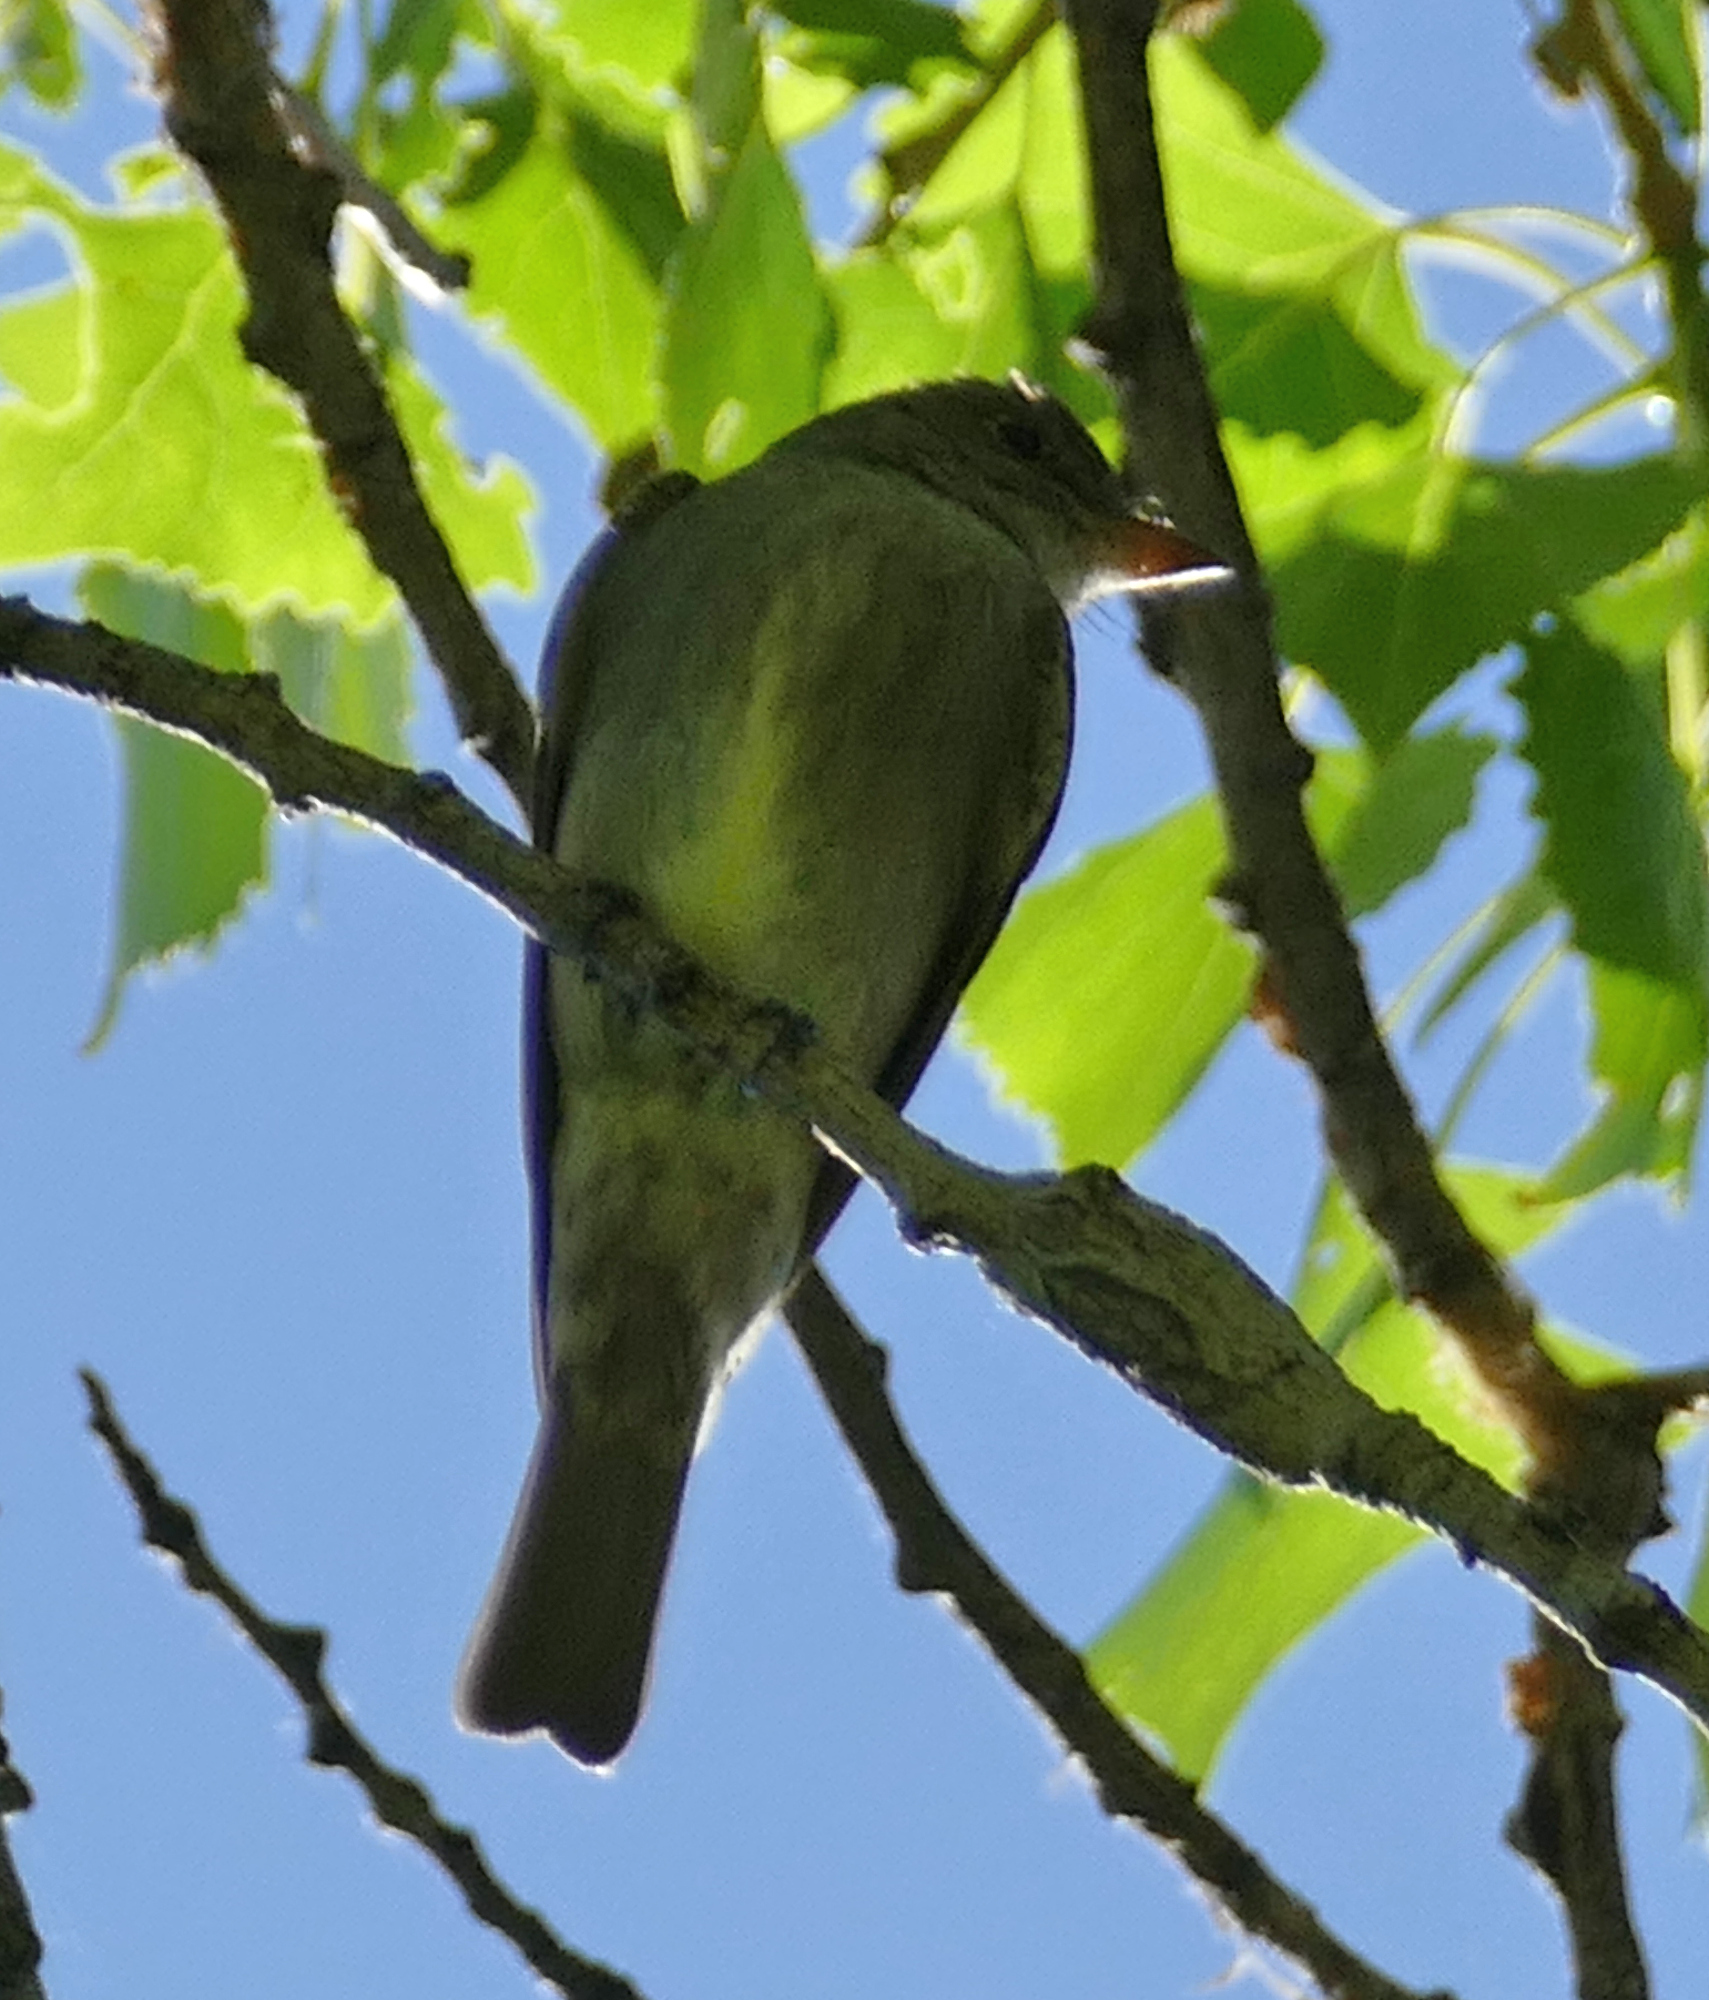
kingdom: Animalia
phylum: Chordata
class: Aves
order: Passeriformes
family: Tyrannidae
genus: Contopus
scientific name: Contopus sordidulus
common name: Western wood-pewee
